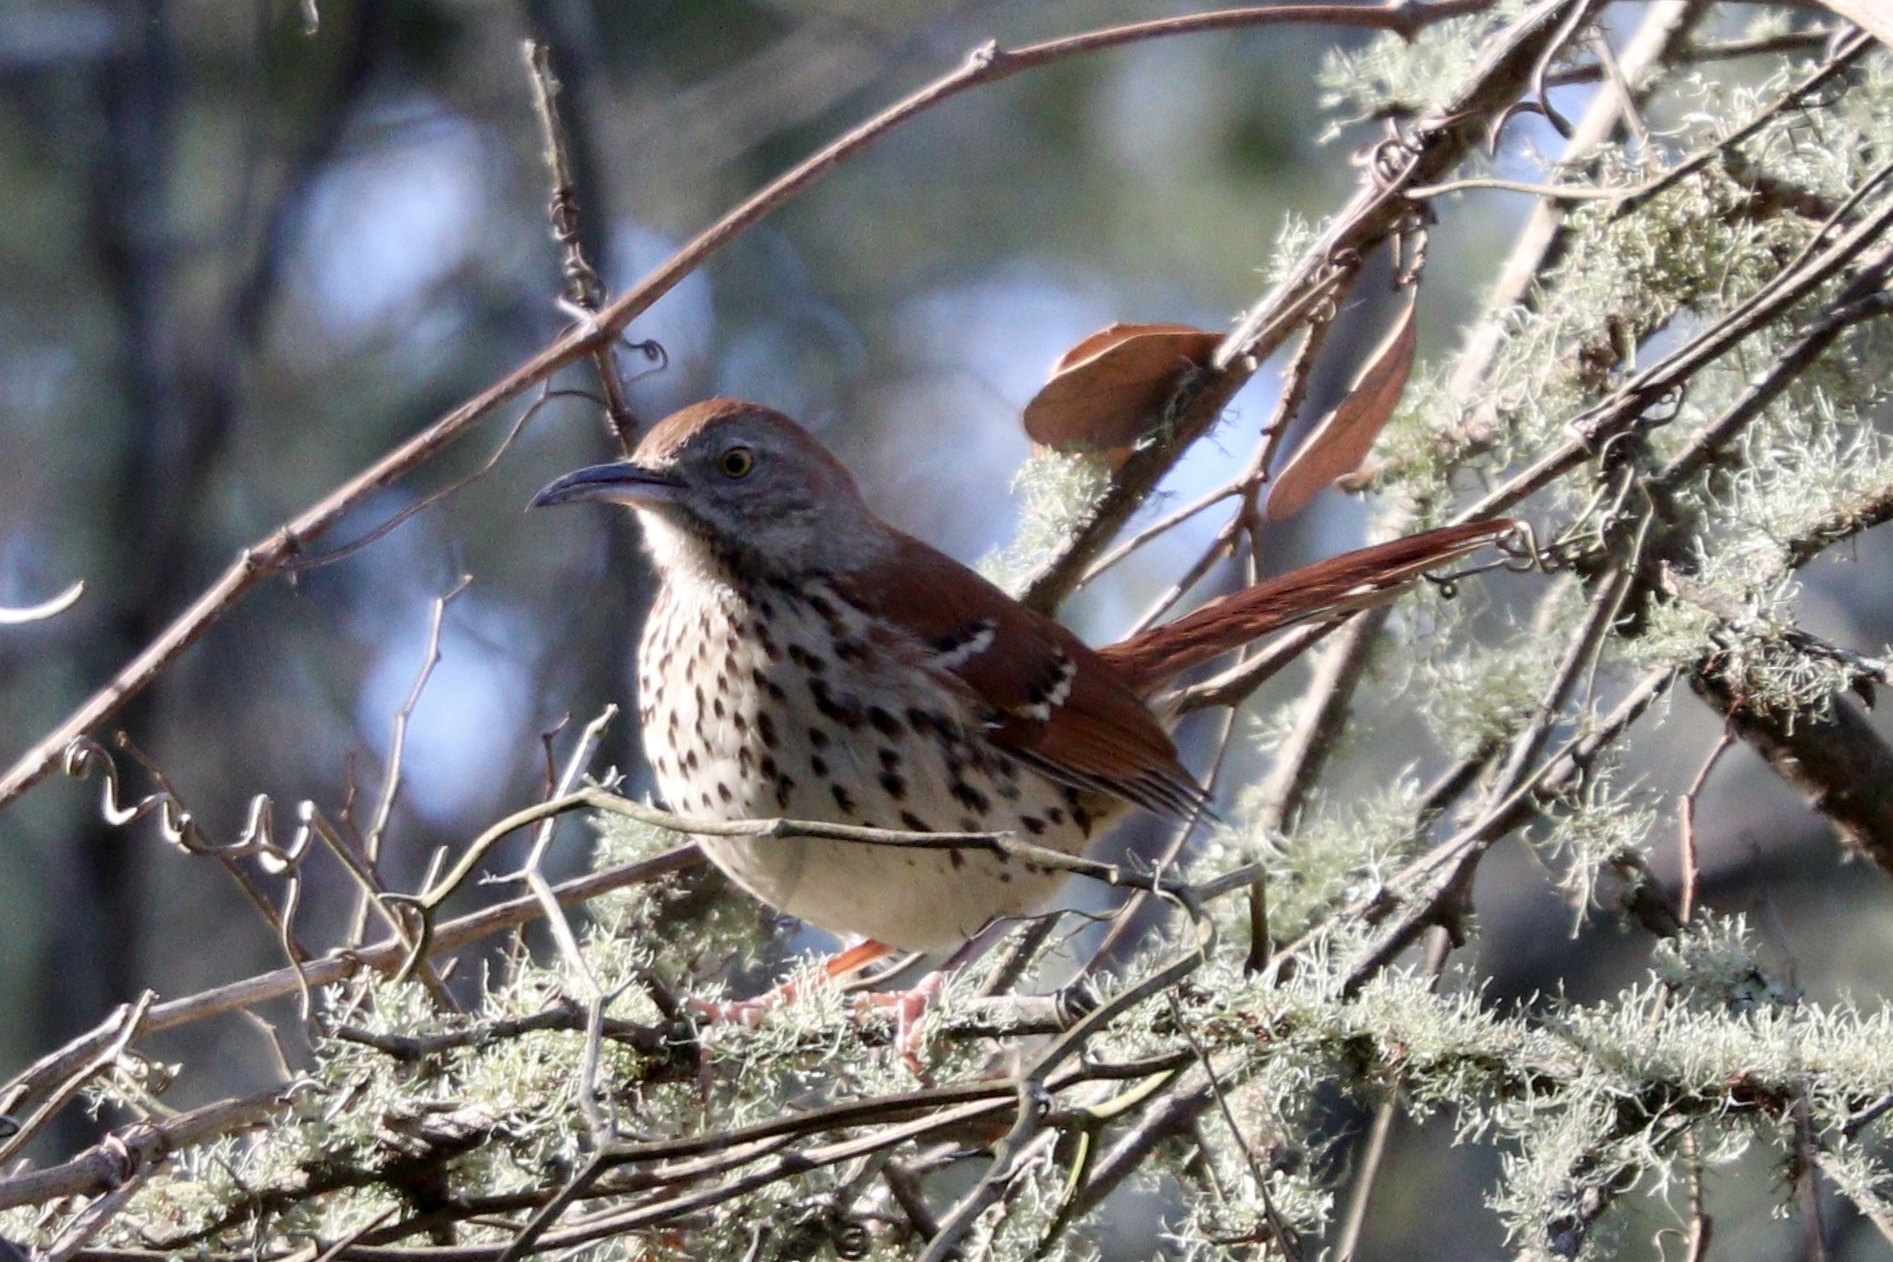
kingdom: Animalia
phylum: Chordata
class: Aves
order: Passeriformes
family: Mimidae
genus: Toxostoma
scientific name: Toxostoma rufum
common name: Brown thrasher
